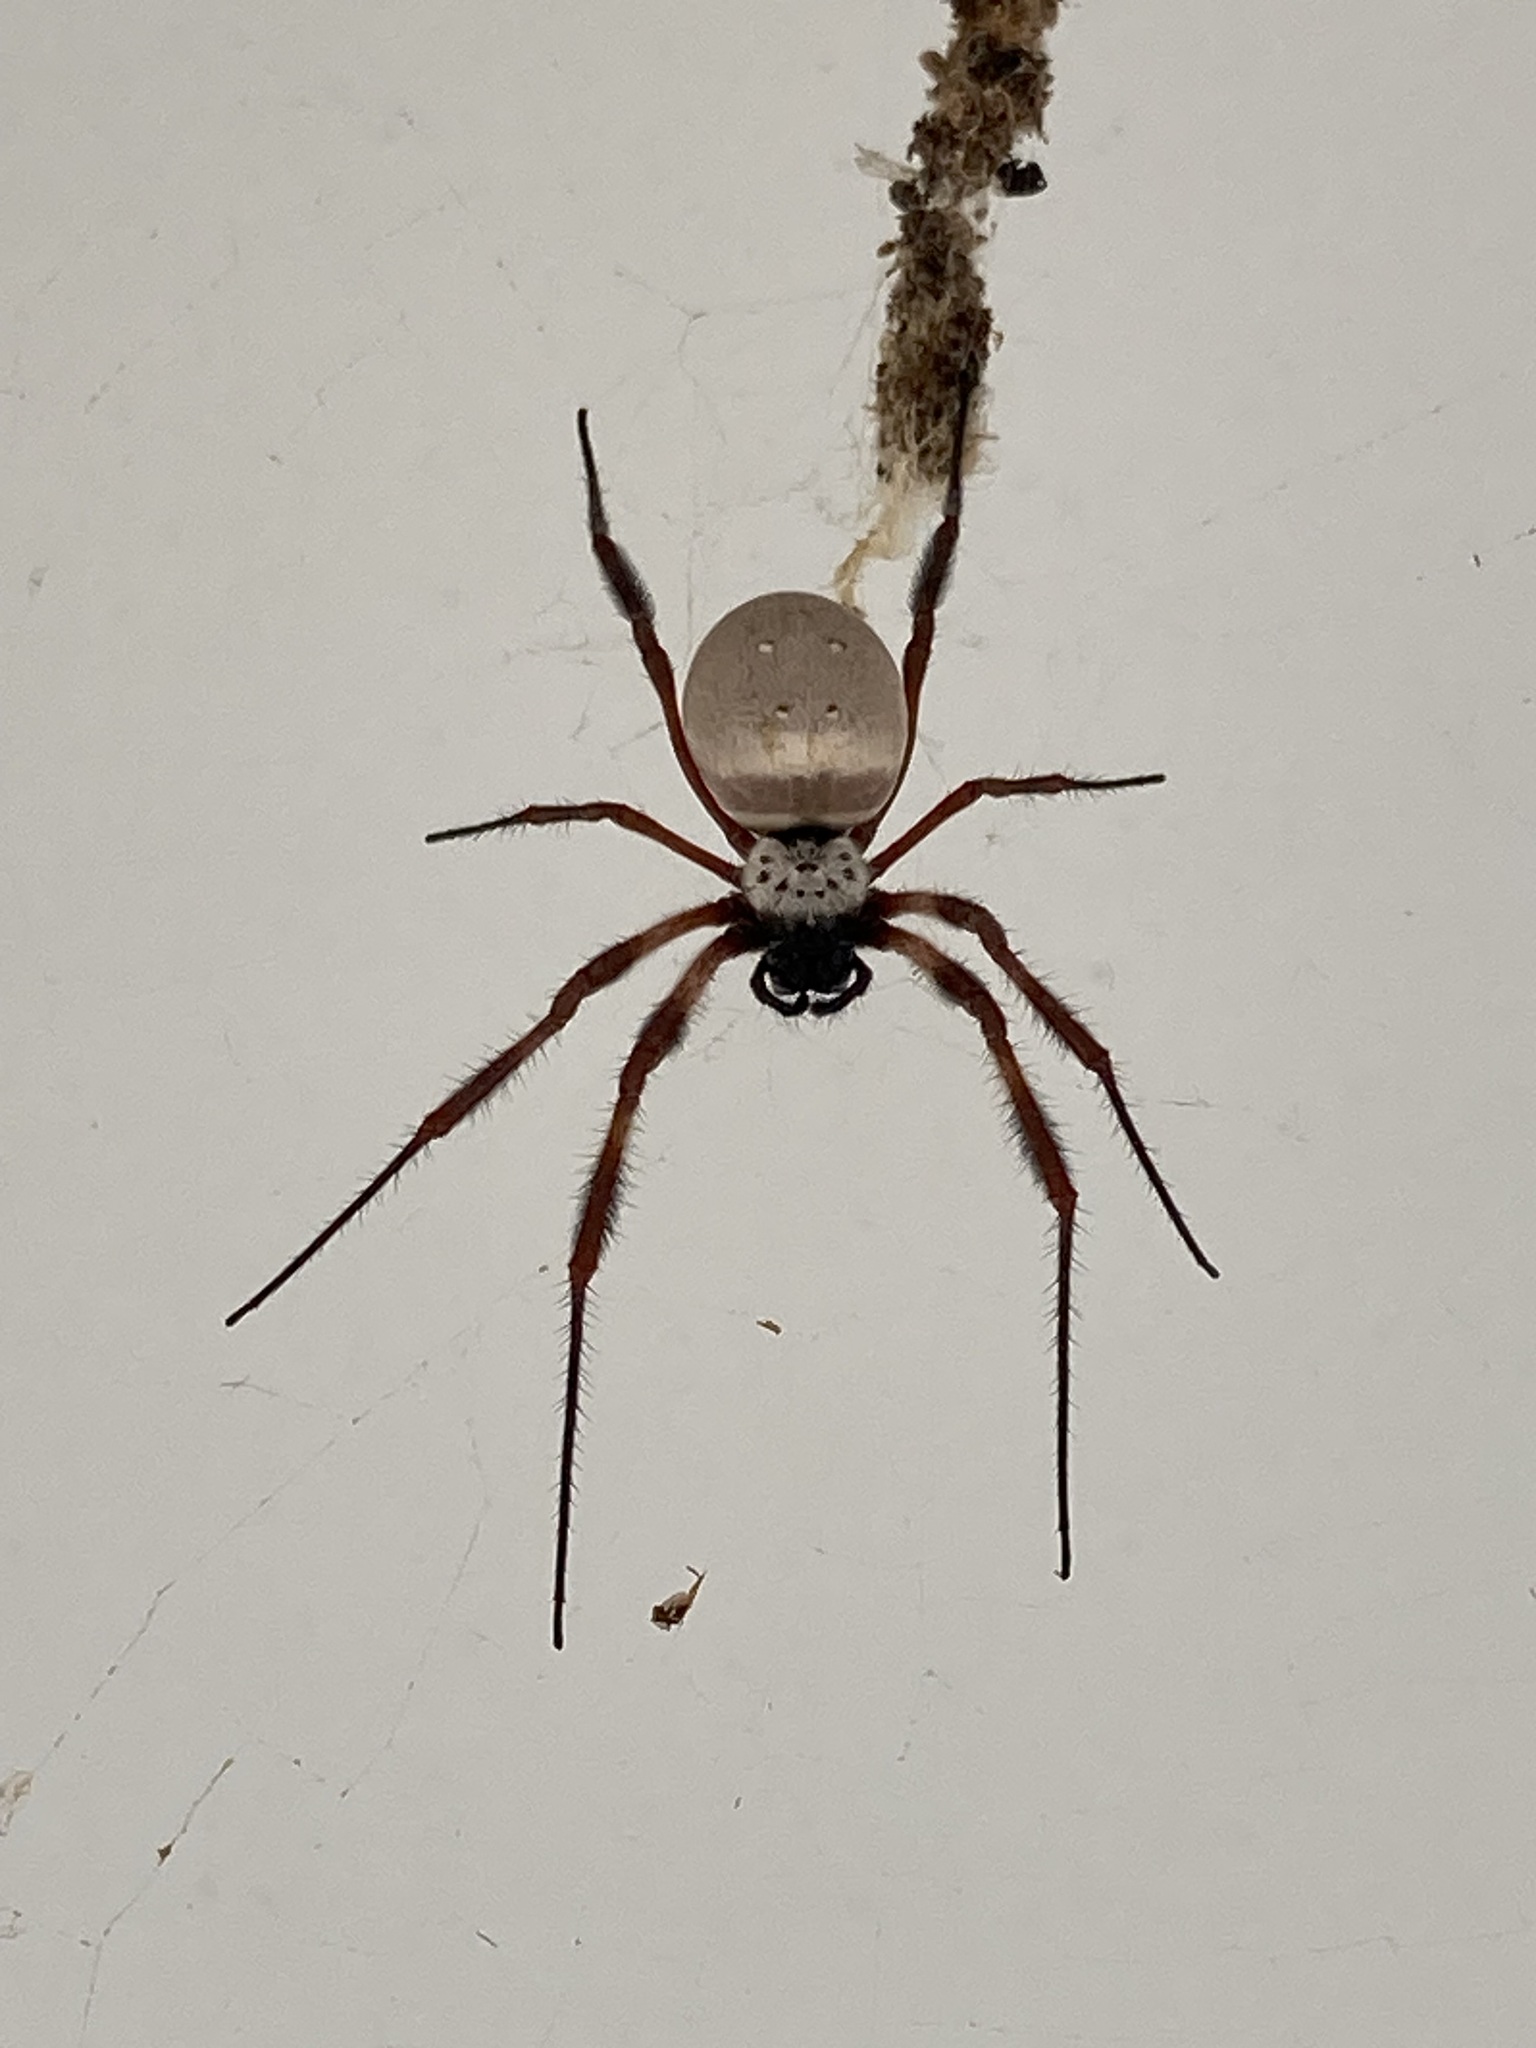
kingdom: Animalia
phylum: Arthropoda
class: Arachnida
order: Araneae
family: Araneidae
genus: Trichonephila
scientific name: Trichonephila edulis
